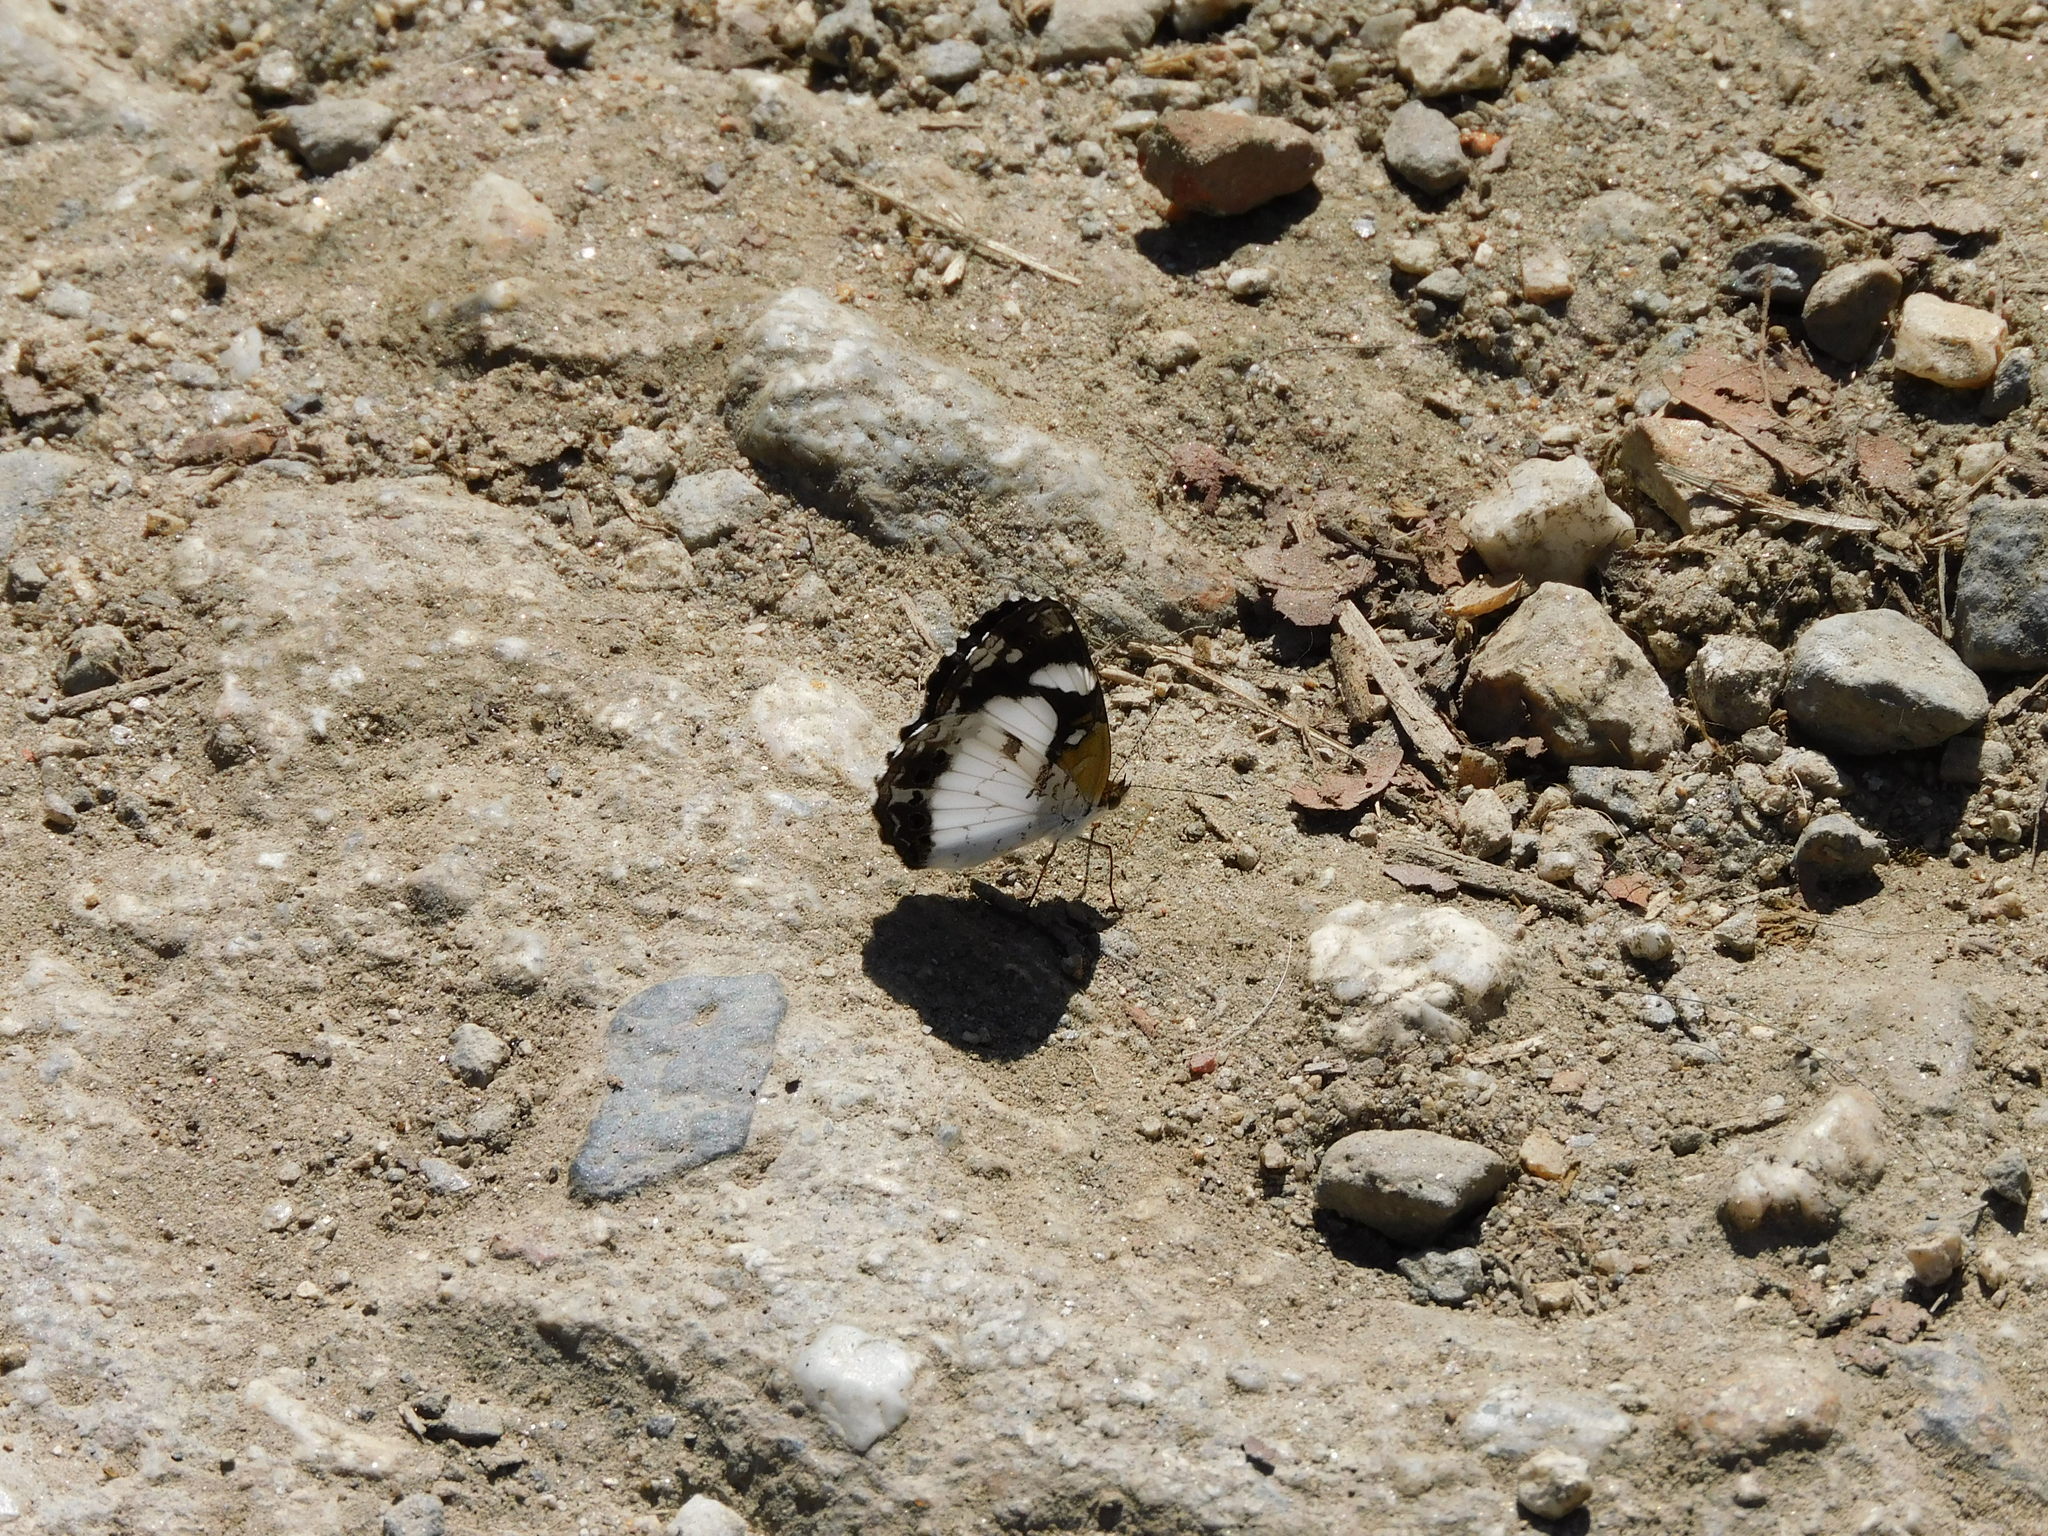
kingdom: Animalia
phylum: Arthropoda
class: Insecta
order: Lepidoptera
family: Nymphalidae
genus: Janatella
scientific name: Janatella leucodesma
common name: Whitened crescent
